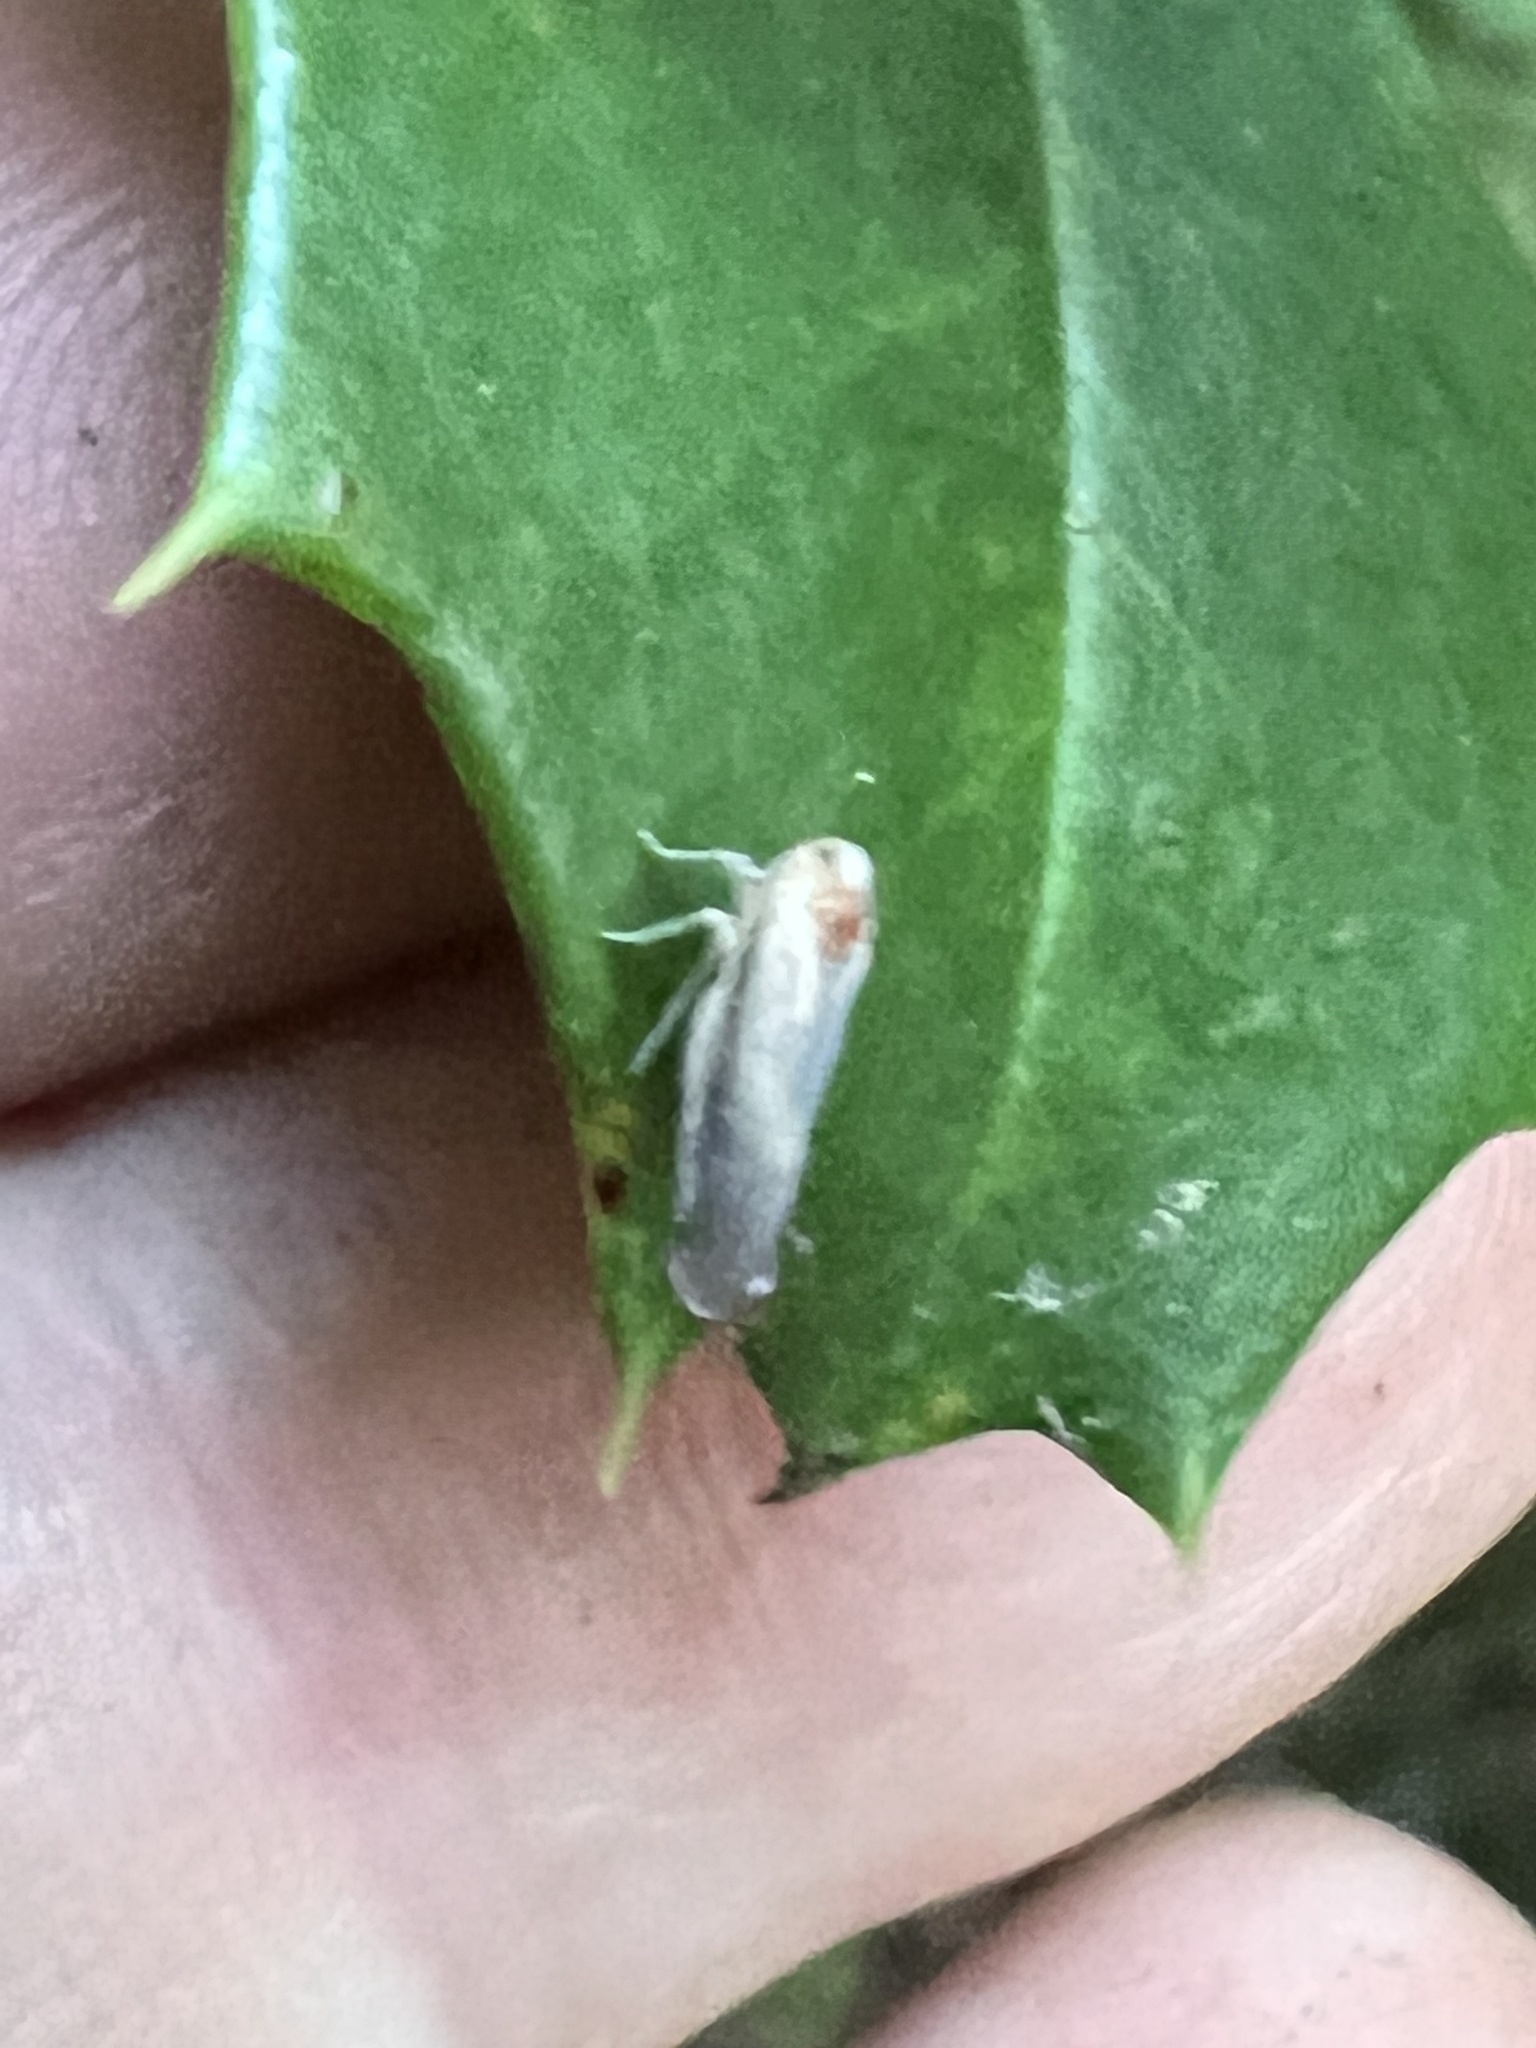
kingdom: Animalia
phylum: Arthropoda
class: Insecta
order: Hemiptera
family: Derbidae
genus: Omolicna
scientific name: Omolicna uhleri
